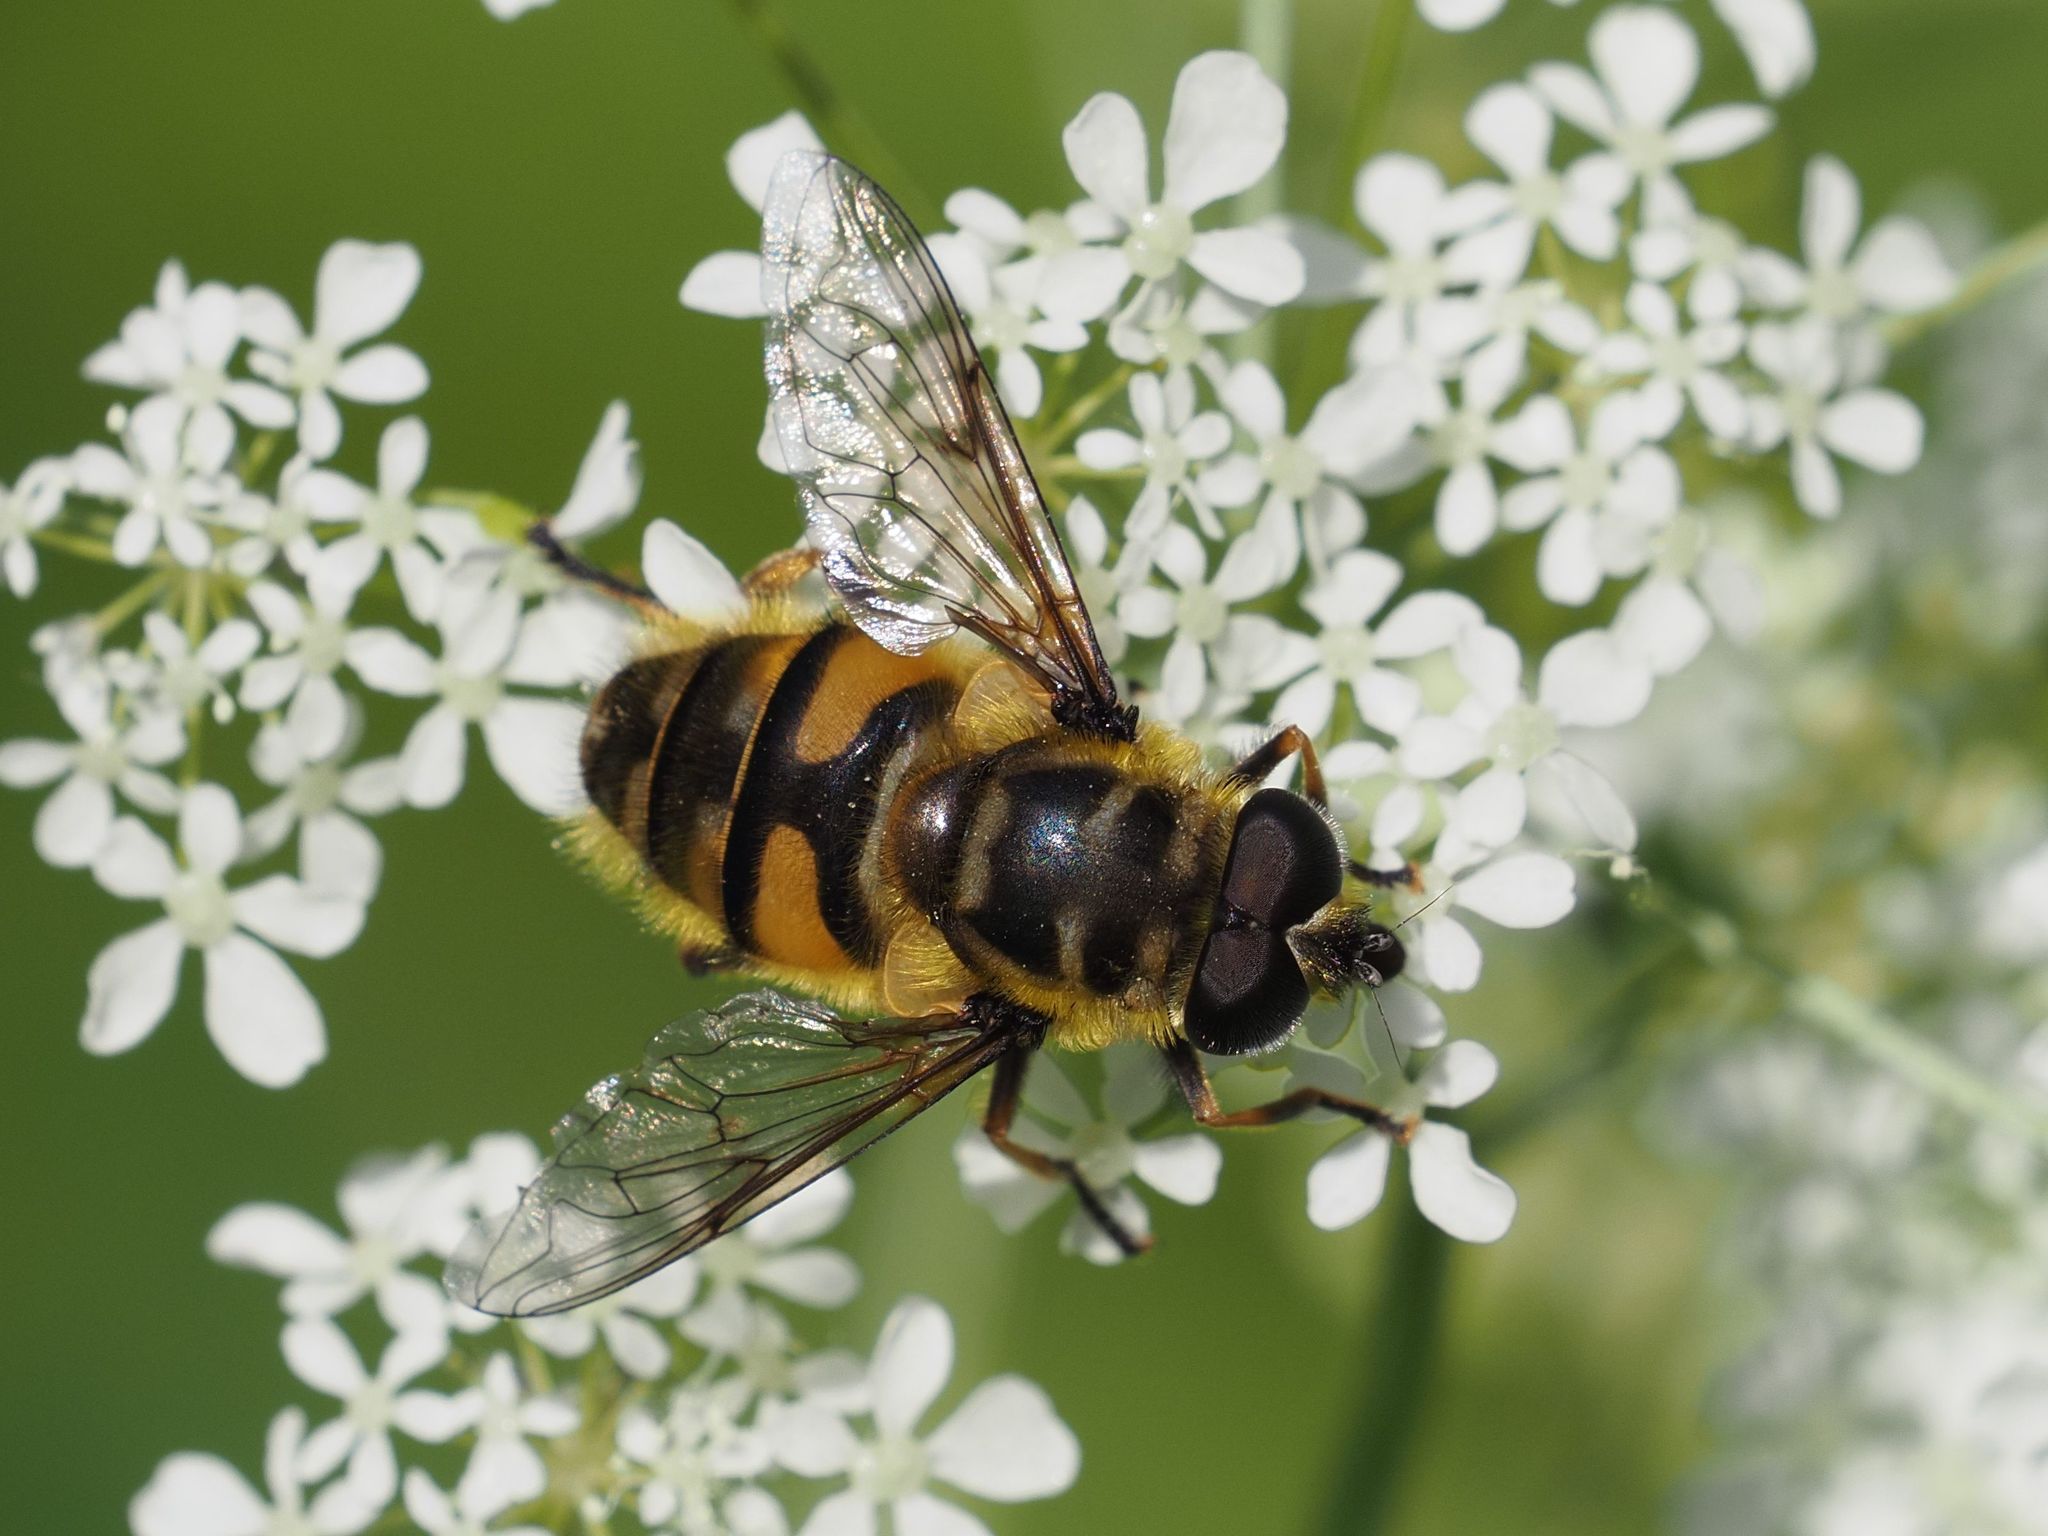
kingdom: Animalia
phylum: Arthropoda
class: Insecta
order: Diptera
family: Syrphidae
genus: Myathropa
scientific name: Myathropa florea
